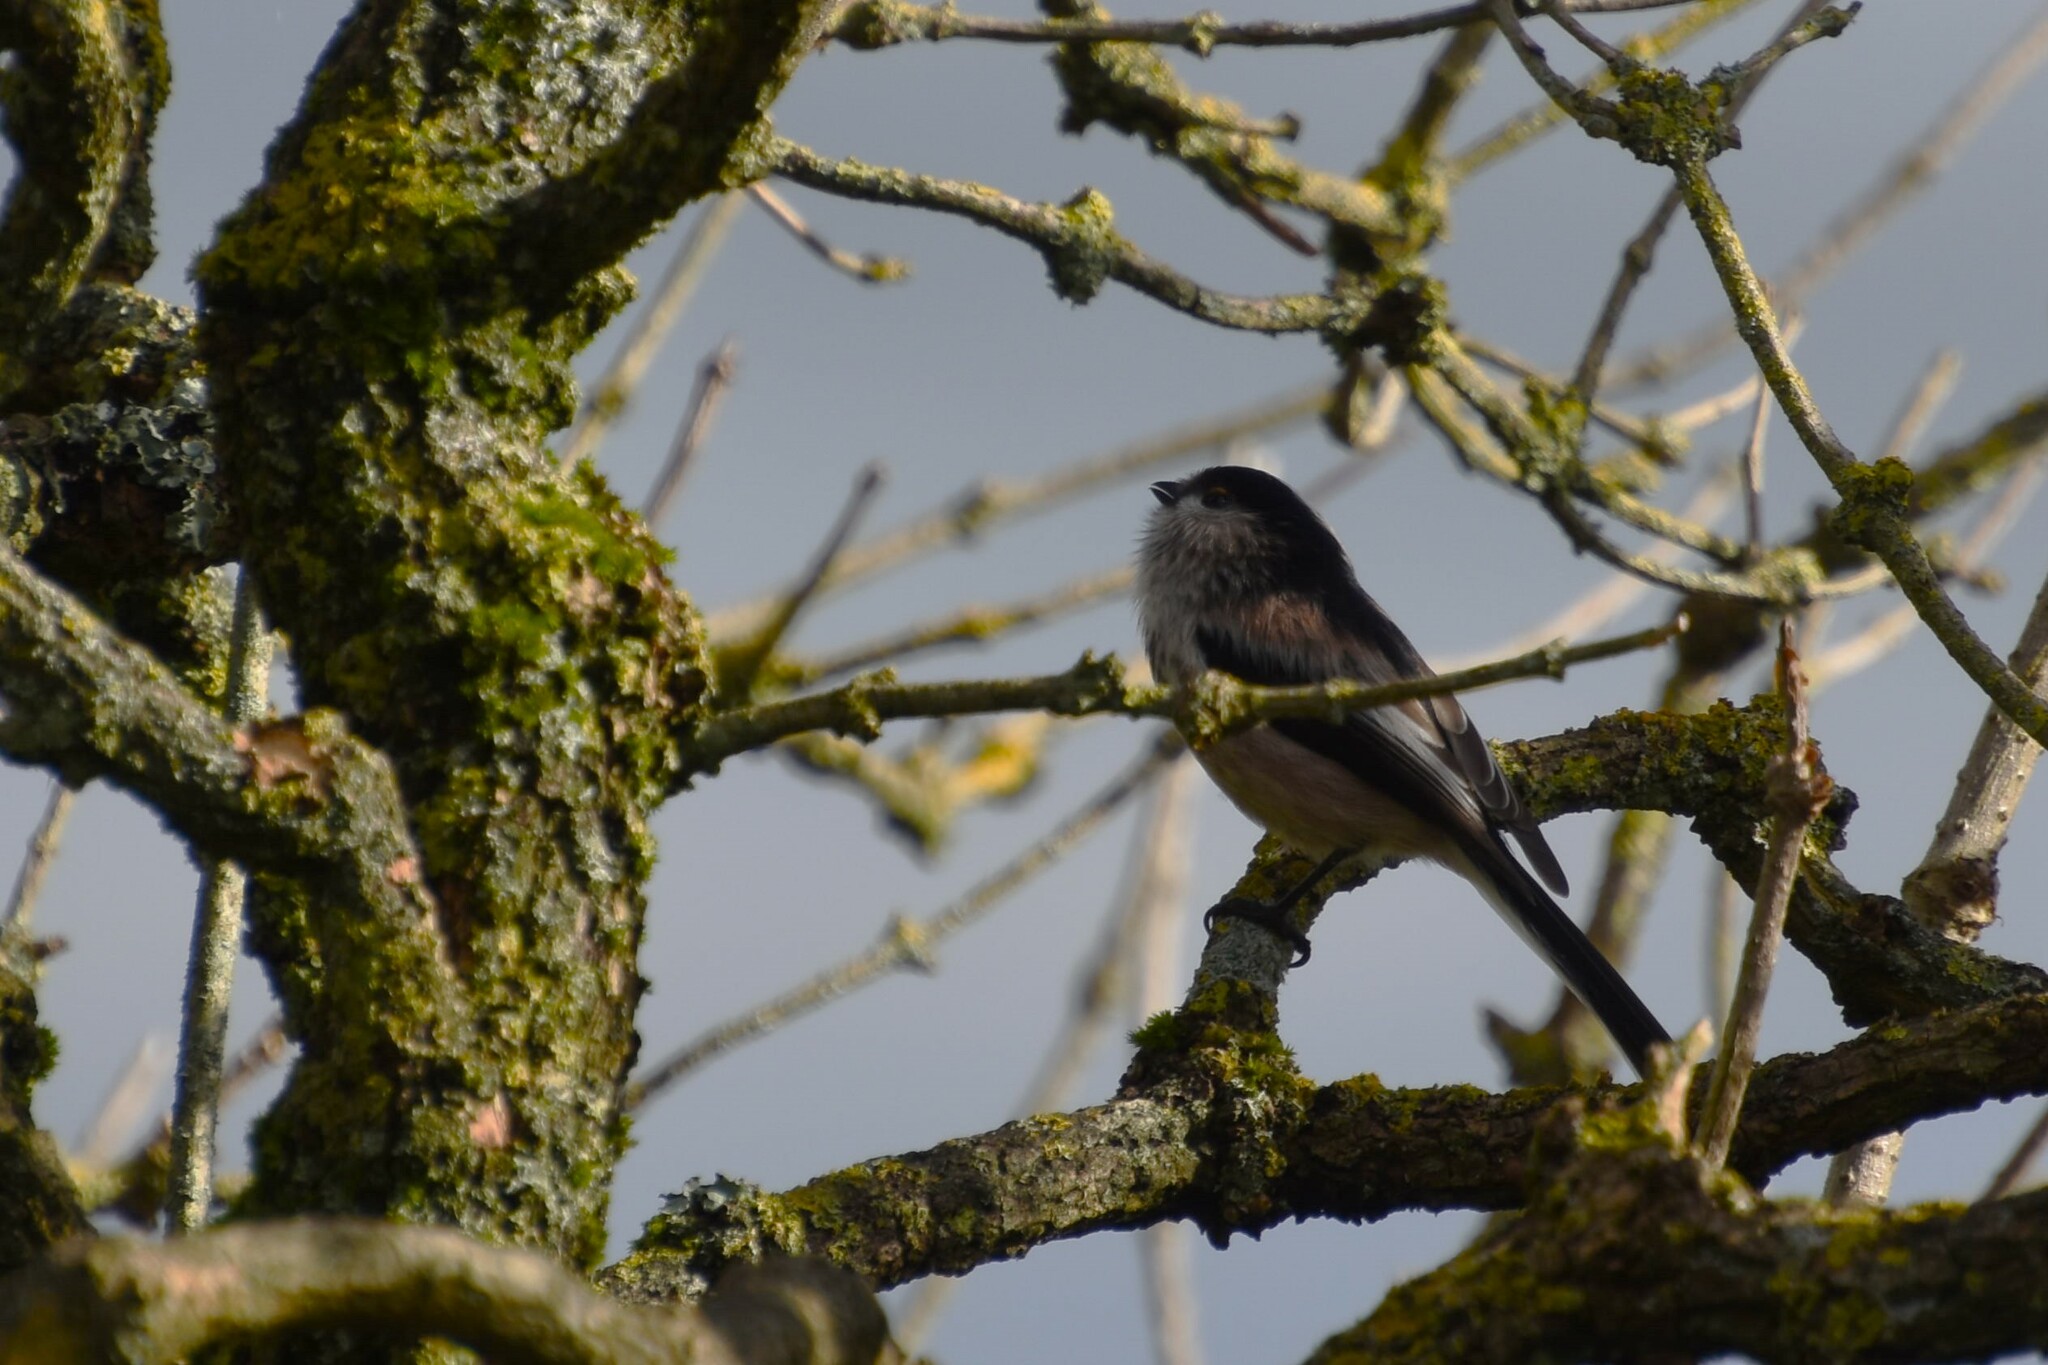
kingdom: Animalia
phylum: Chordata
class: Aves
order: Passeriformes
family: Aegithalidae
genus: Aegithalos
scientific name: Aegithalos caudatus
